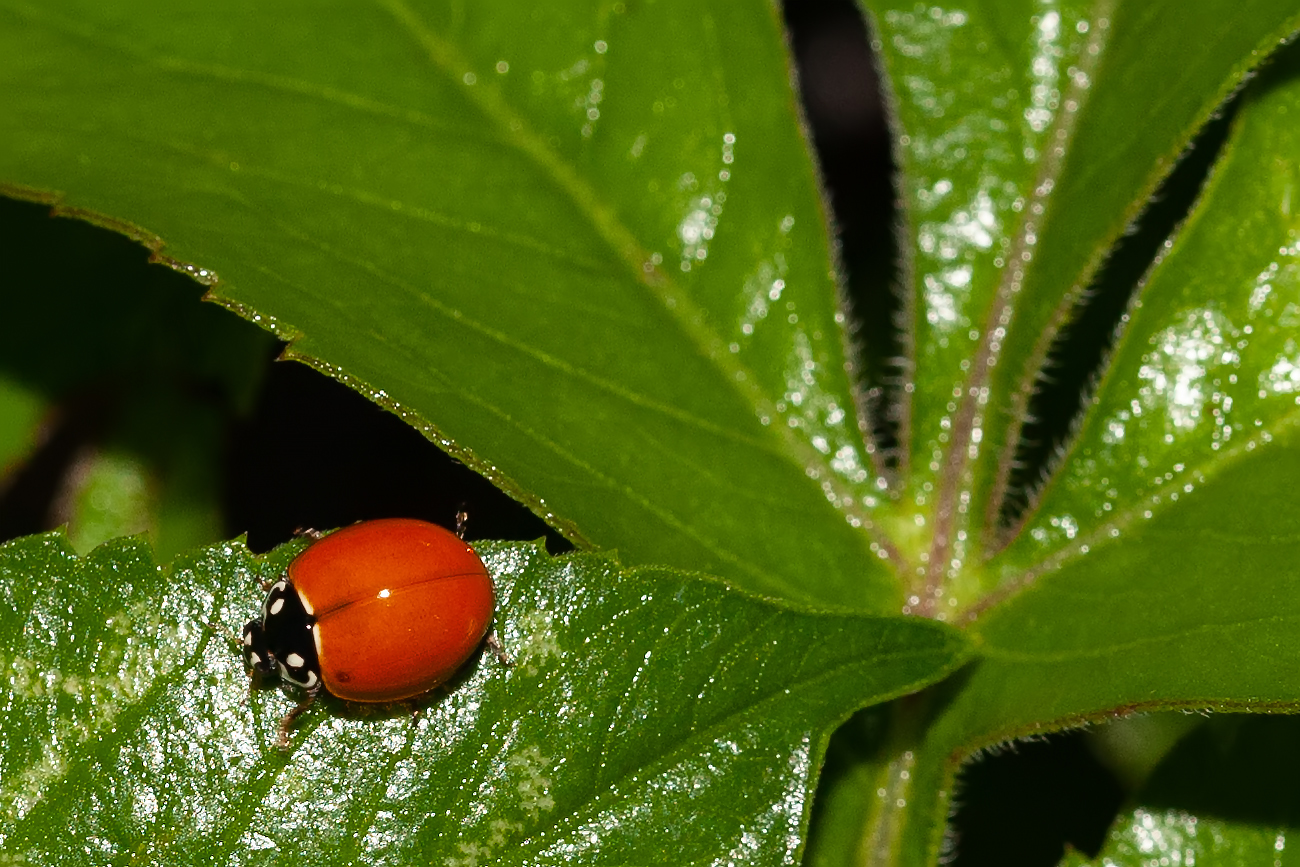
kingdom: Animalia
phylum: Arthropoda
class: Insecta
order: Coleoptera
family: Coccinellidae
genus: Cycloneda
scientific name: Cycloneda sanguinea
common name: Ladybird beetle
